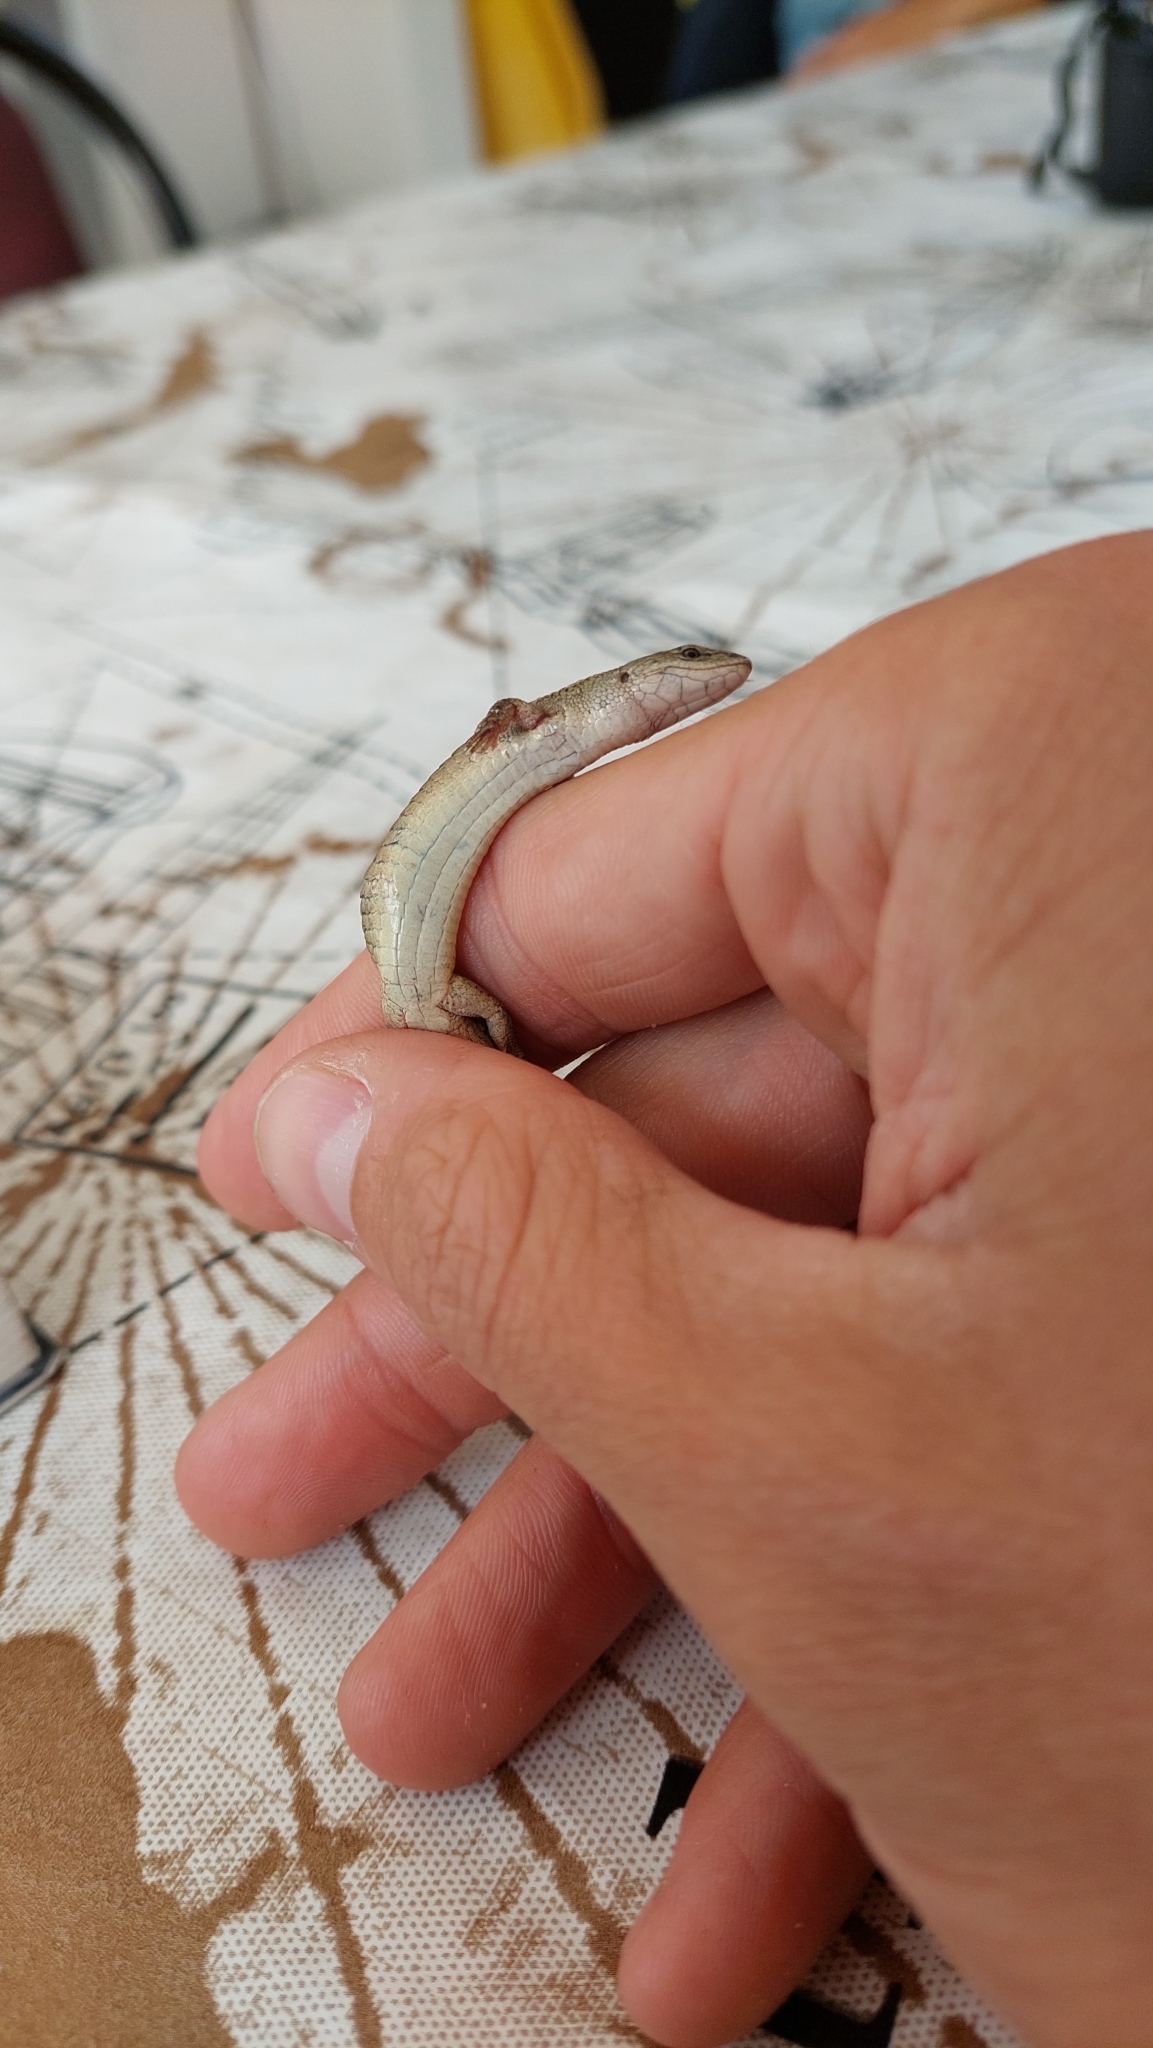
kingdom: Animalia
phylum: Chordata
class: Squamata
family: Gymnophthalmidae
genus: Cercosaura
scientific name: Cercosaura schreibersii
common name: Schreibers' many-fingered teiid
